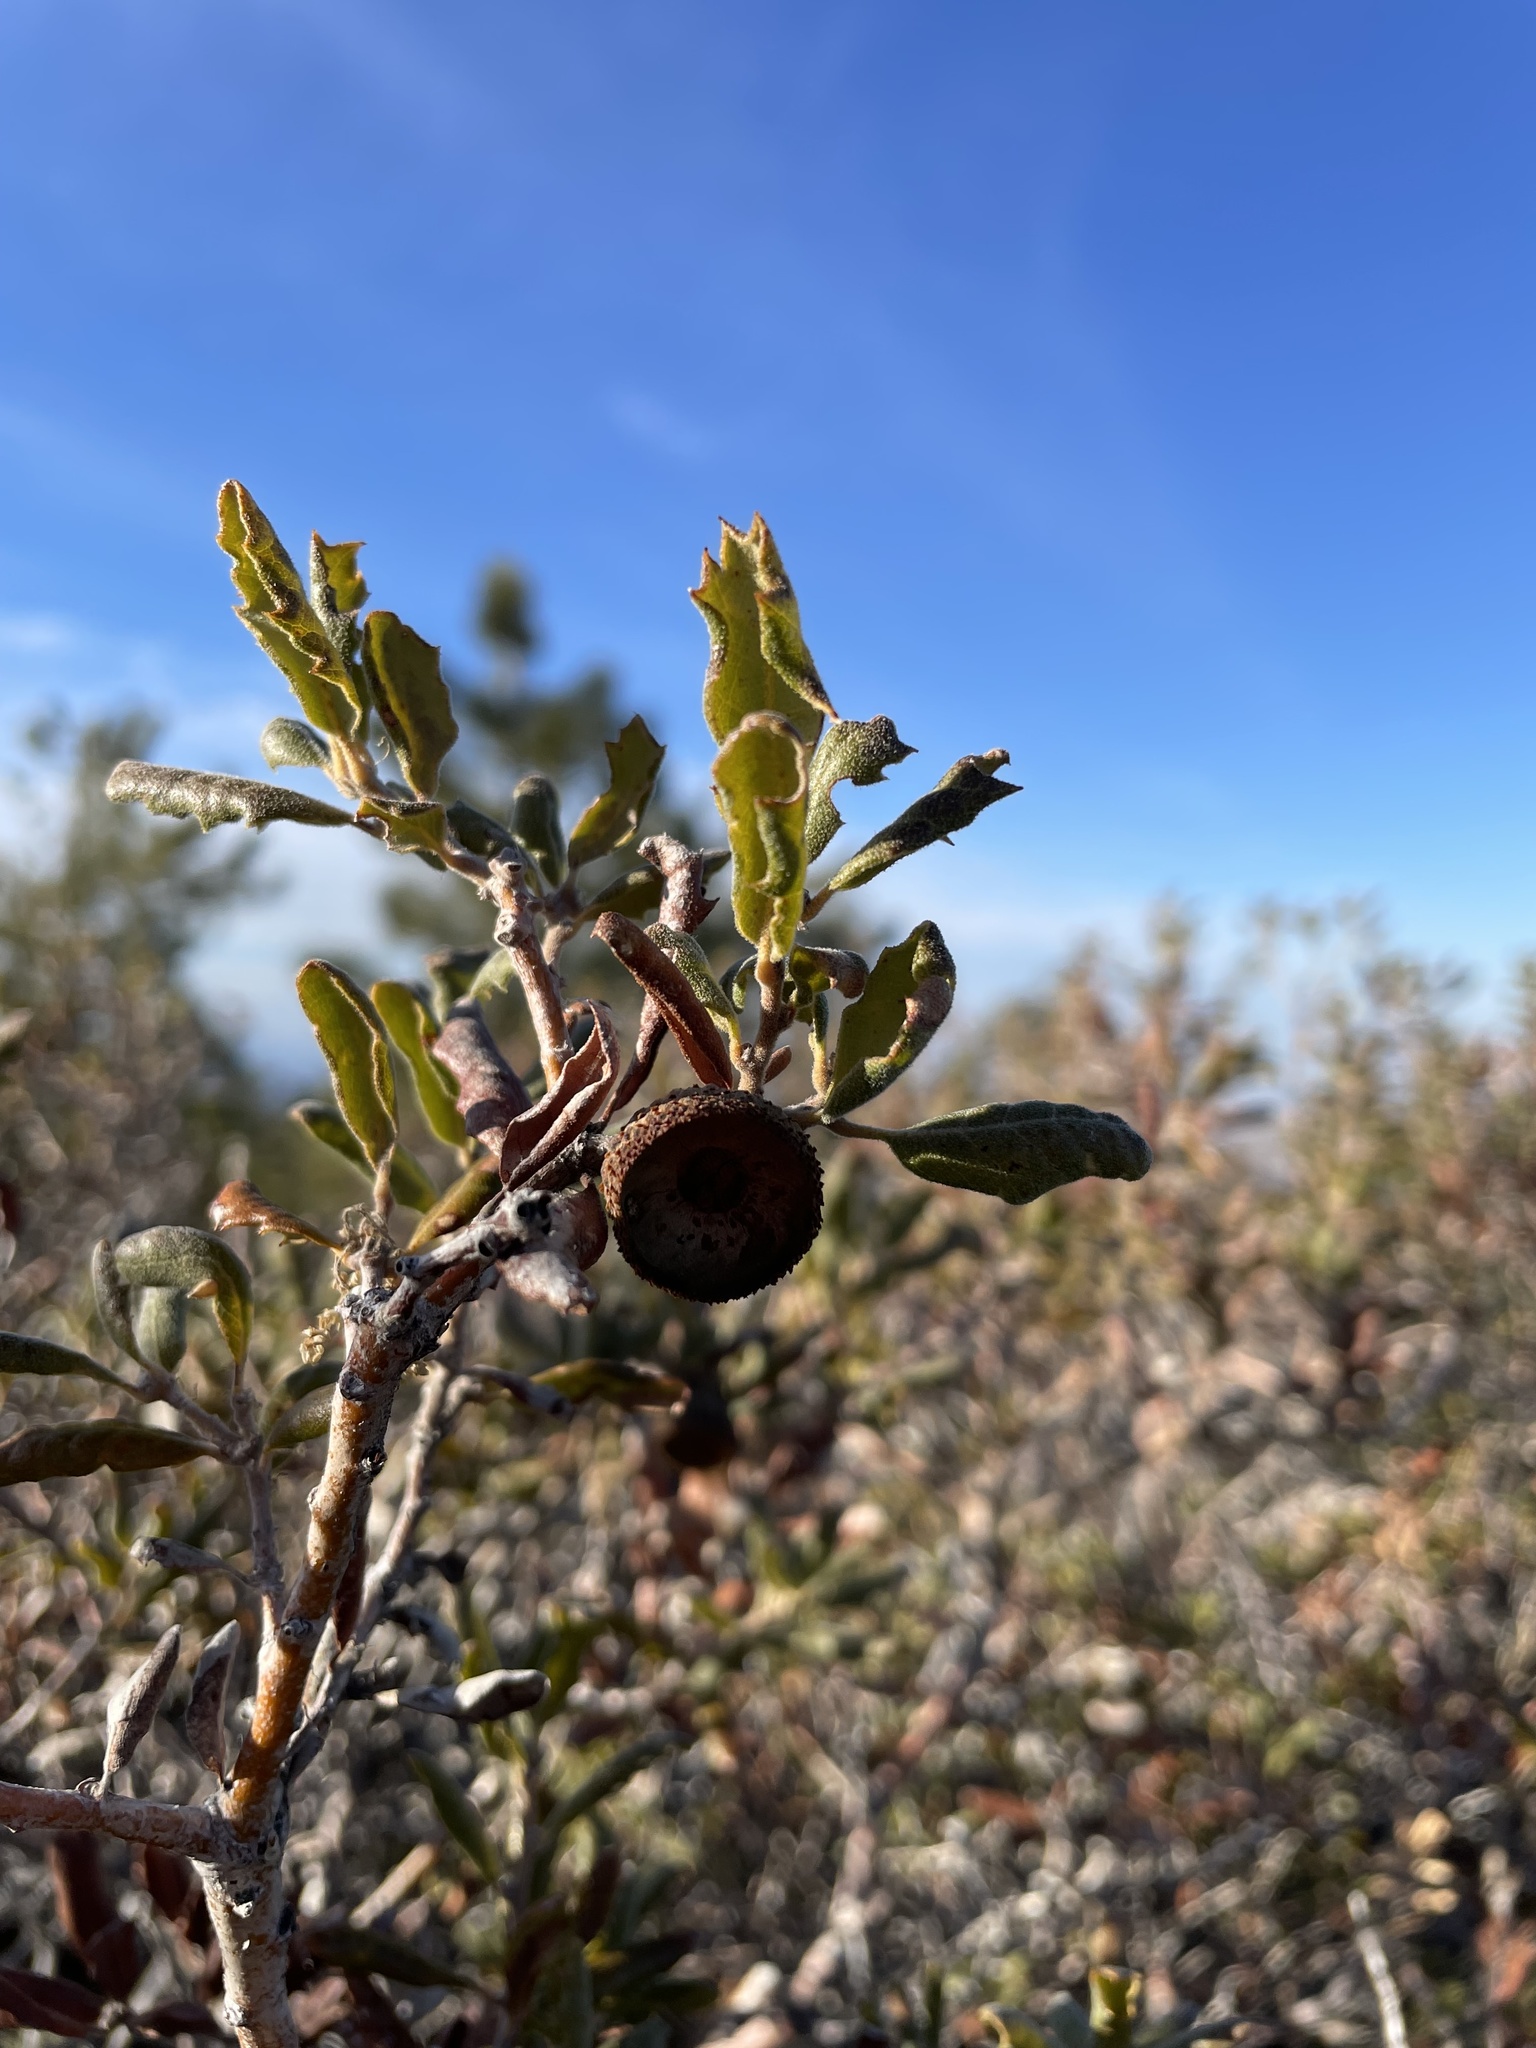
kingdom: Plantae
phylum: Tracheophyta
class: Magnoliopsida
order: Fagales
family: Fagaceae
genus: Quercus
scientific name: Quercus durata
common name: Leather oak
